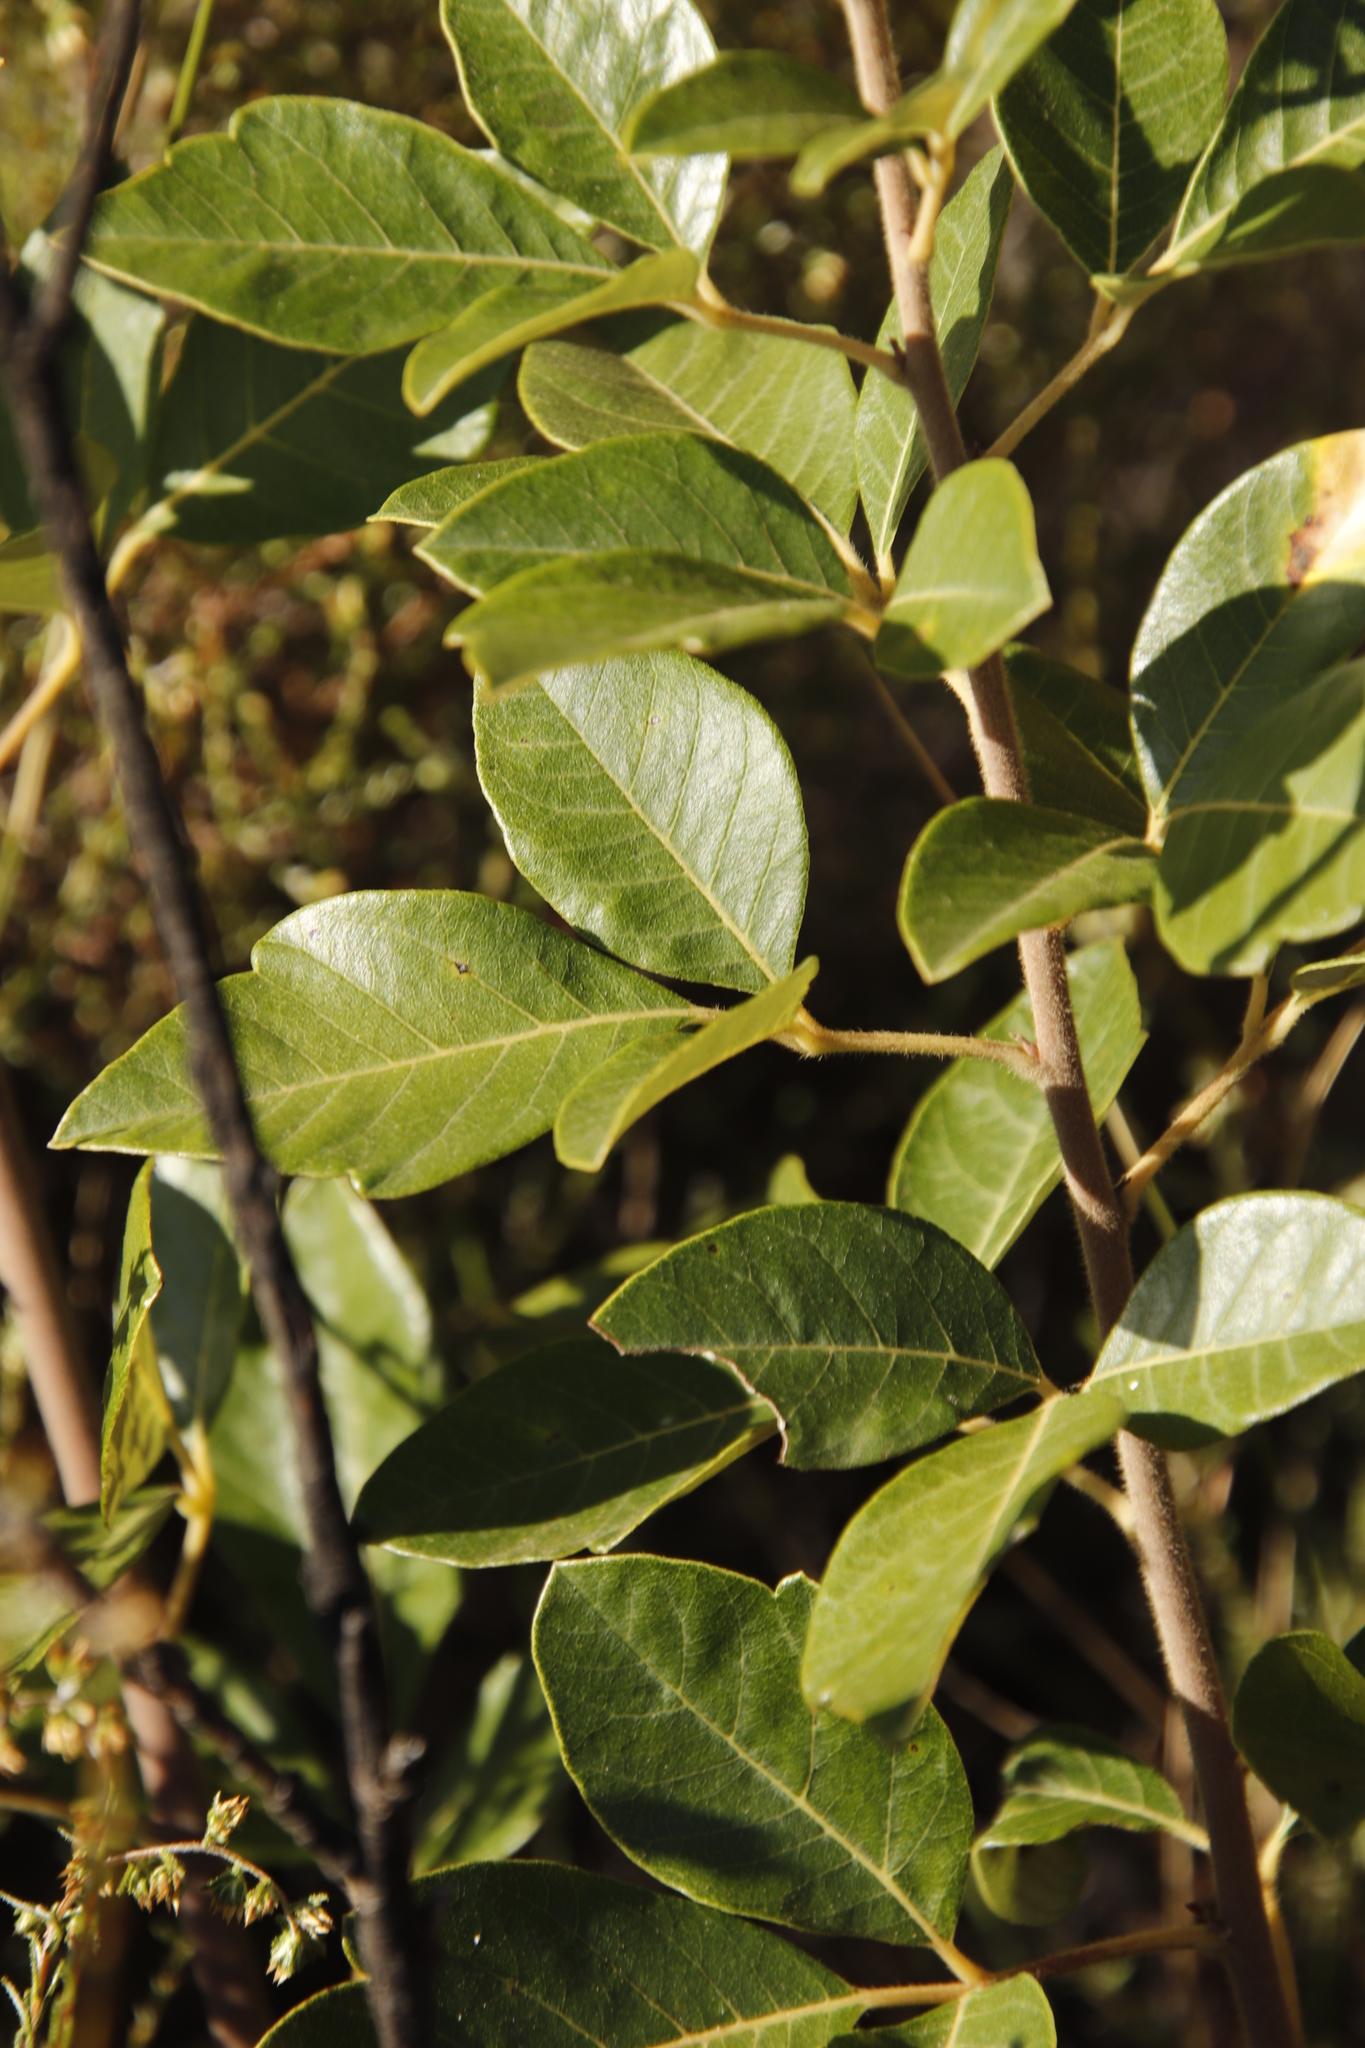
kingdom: Plantae
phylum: Tracheophyta
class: Magnoliopsida
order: Sapindales
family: Anacardiaceae
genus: Searsia
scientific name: Searsia tomentosa
